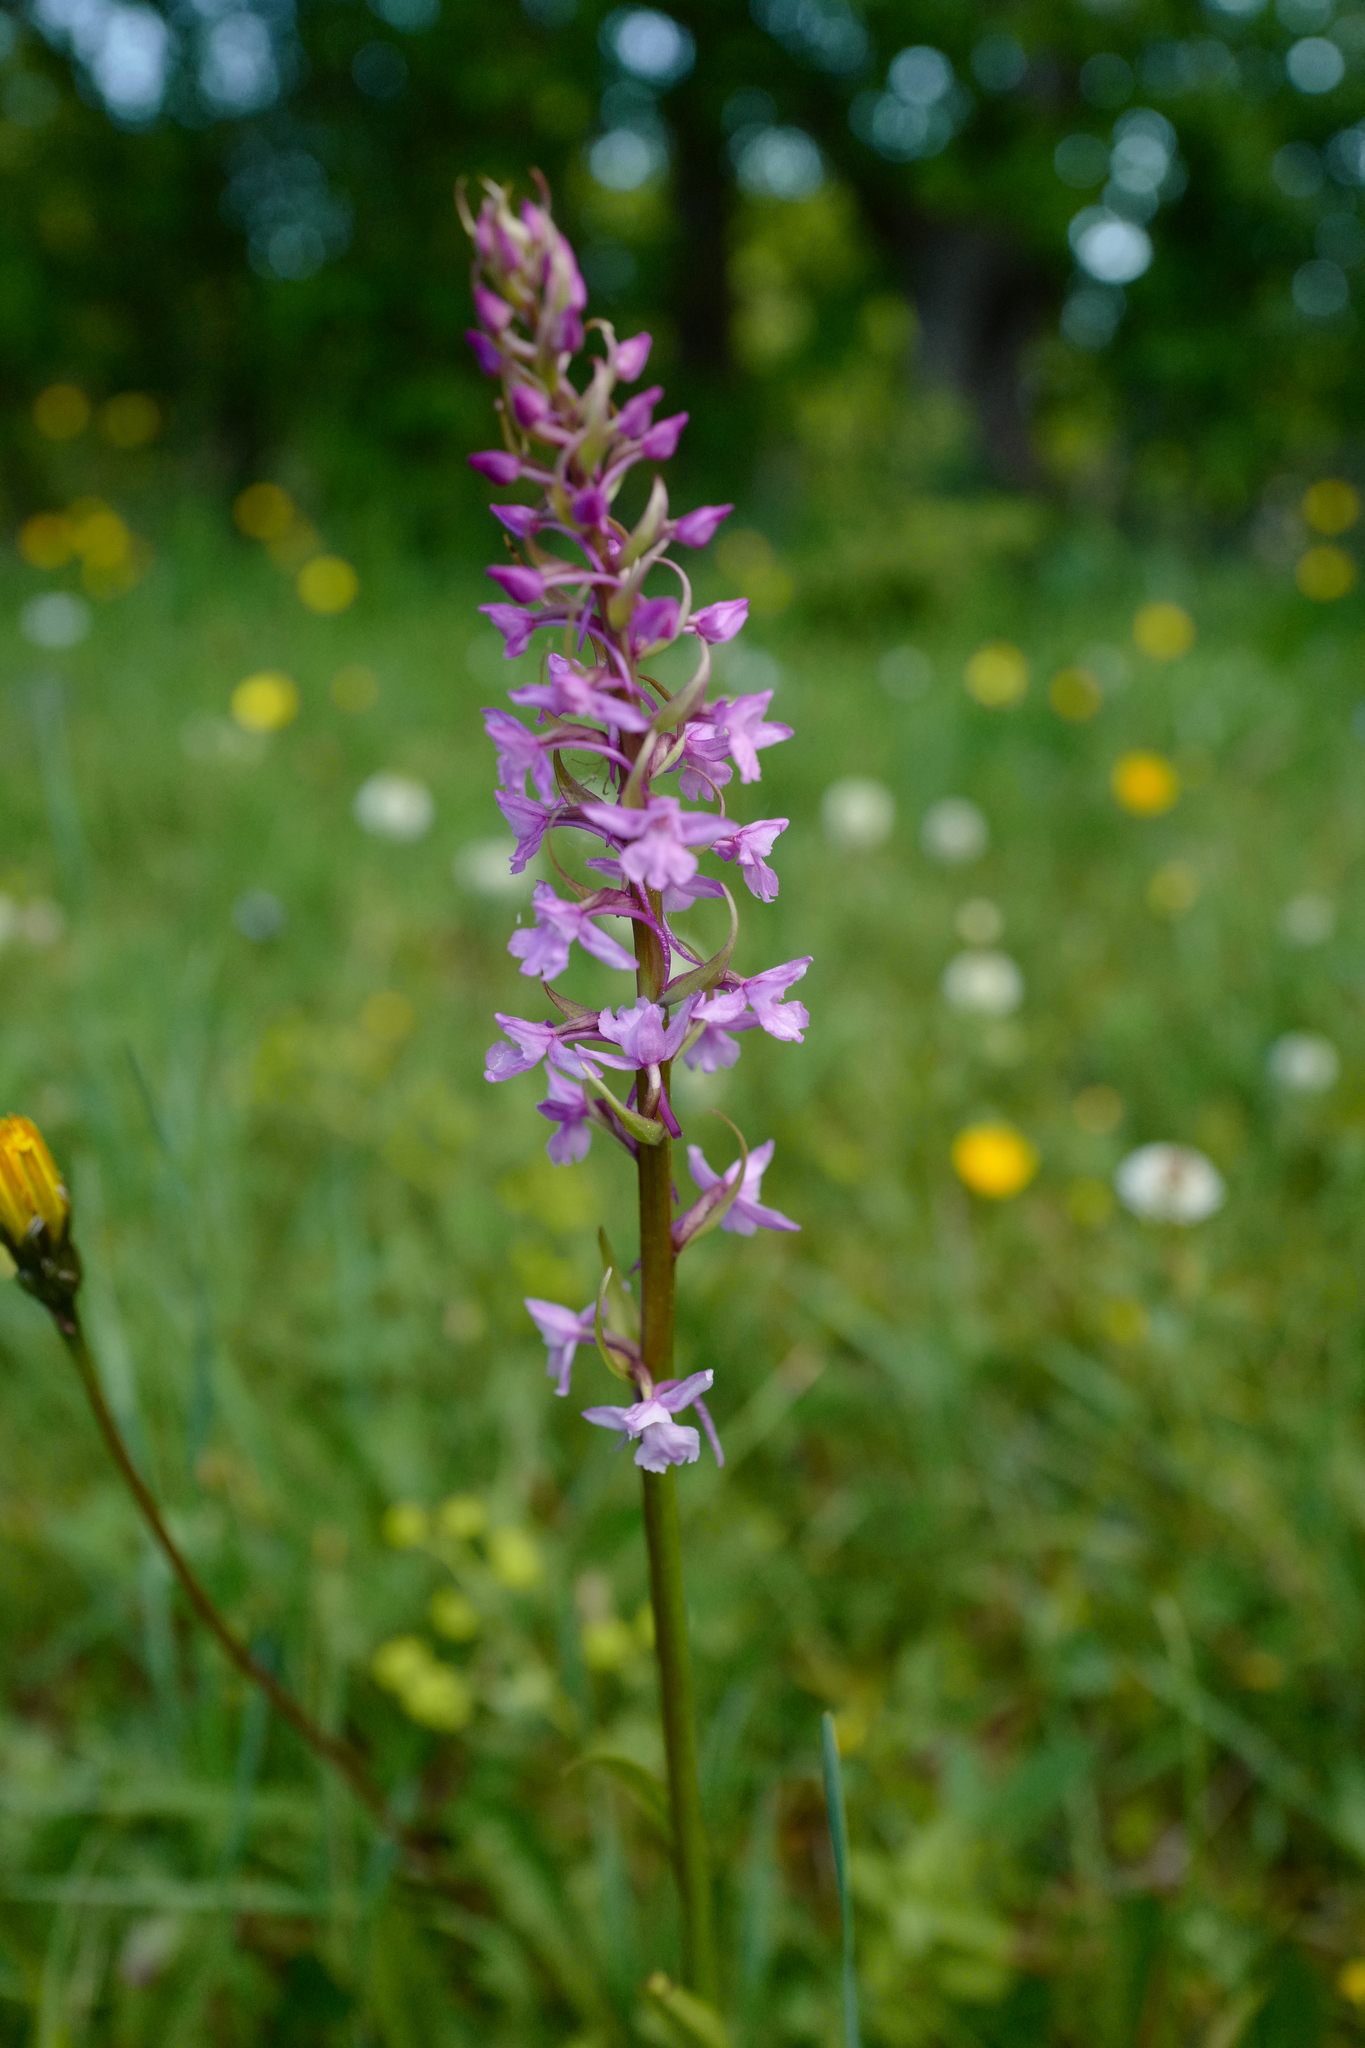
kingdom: Plantae
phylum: Tracheophyta
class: Liliopsida
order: Asparagales
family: Orchidaceae
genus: Gymnadenia
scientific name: Gymnadenia conopsea
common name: Fragrant orchid
